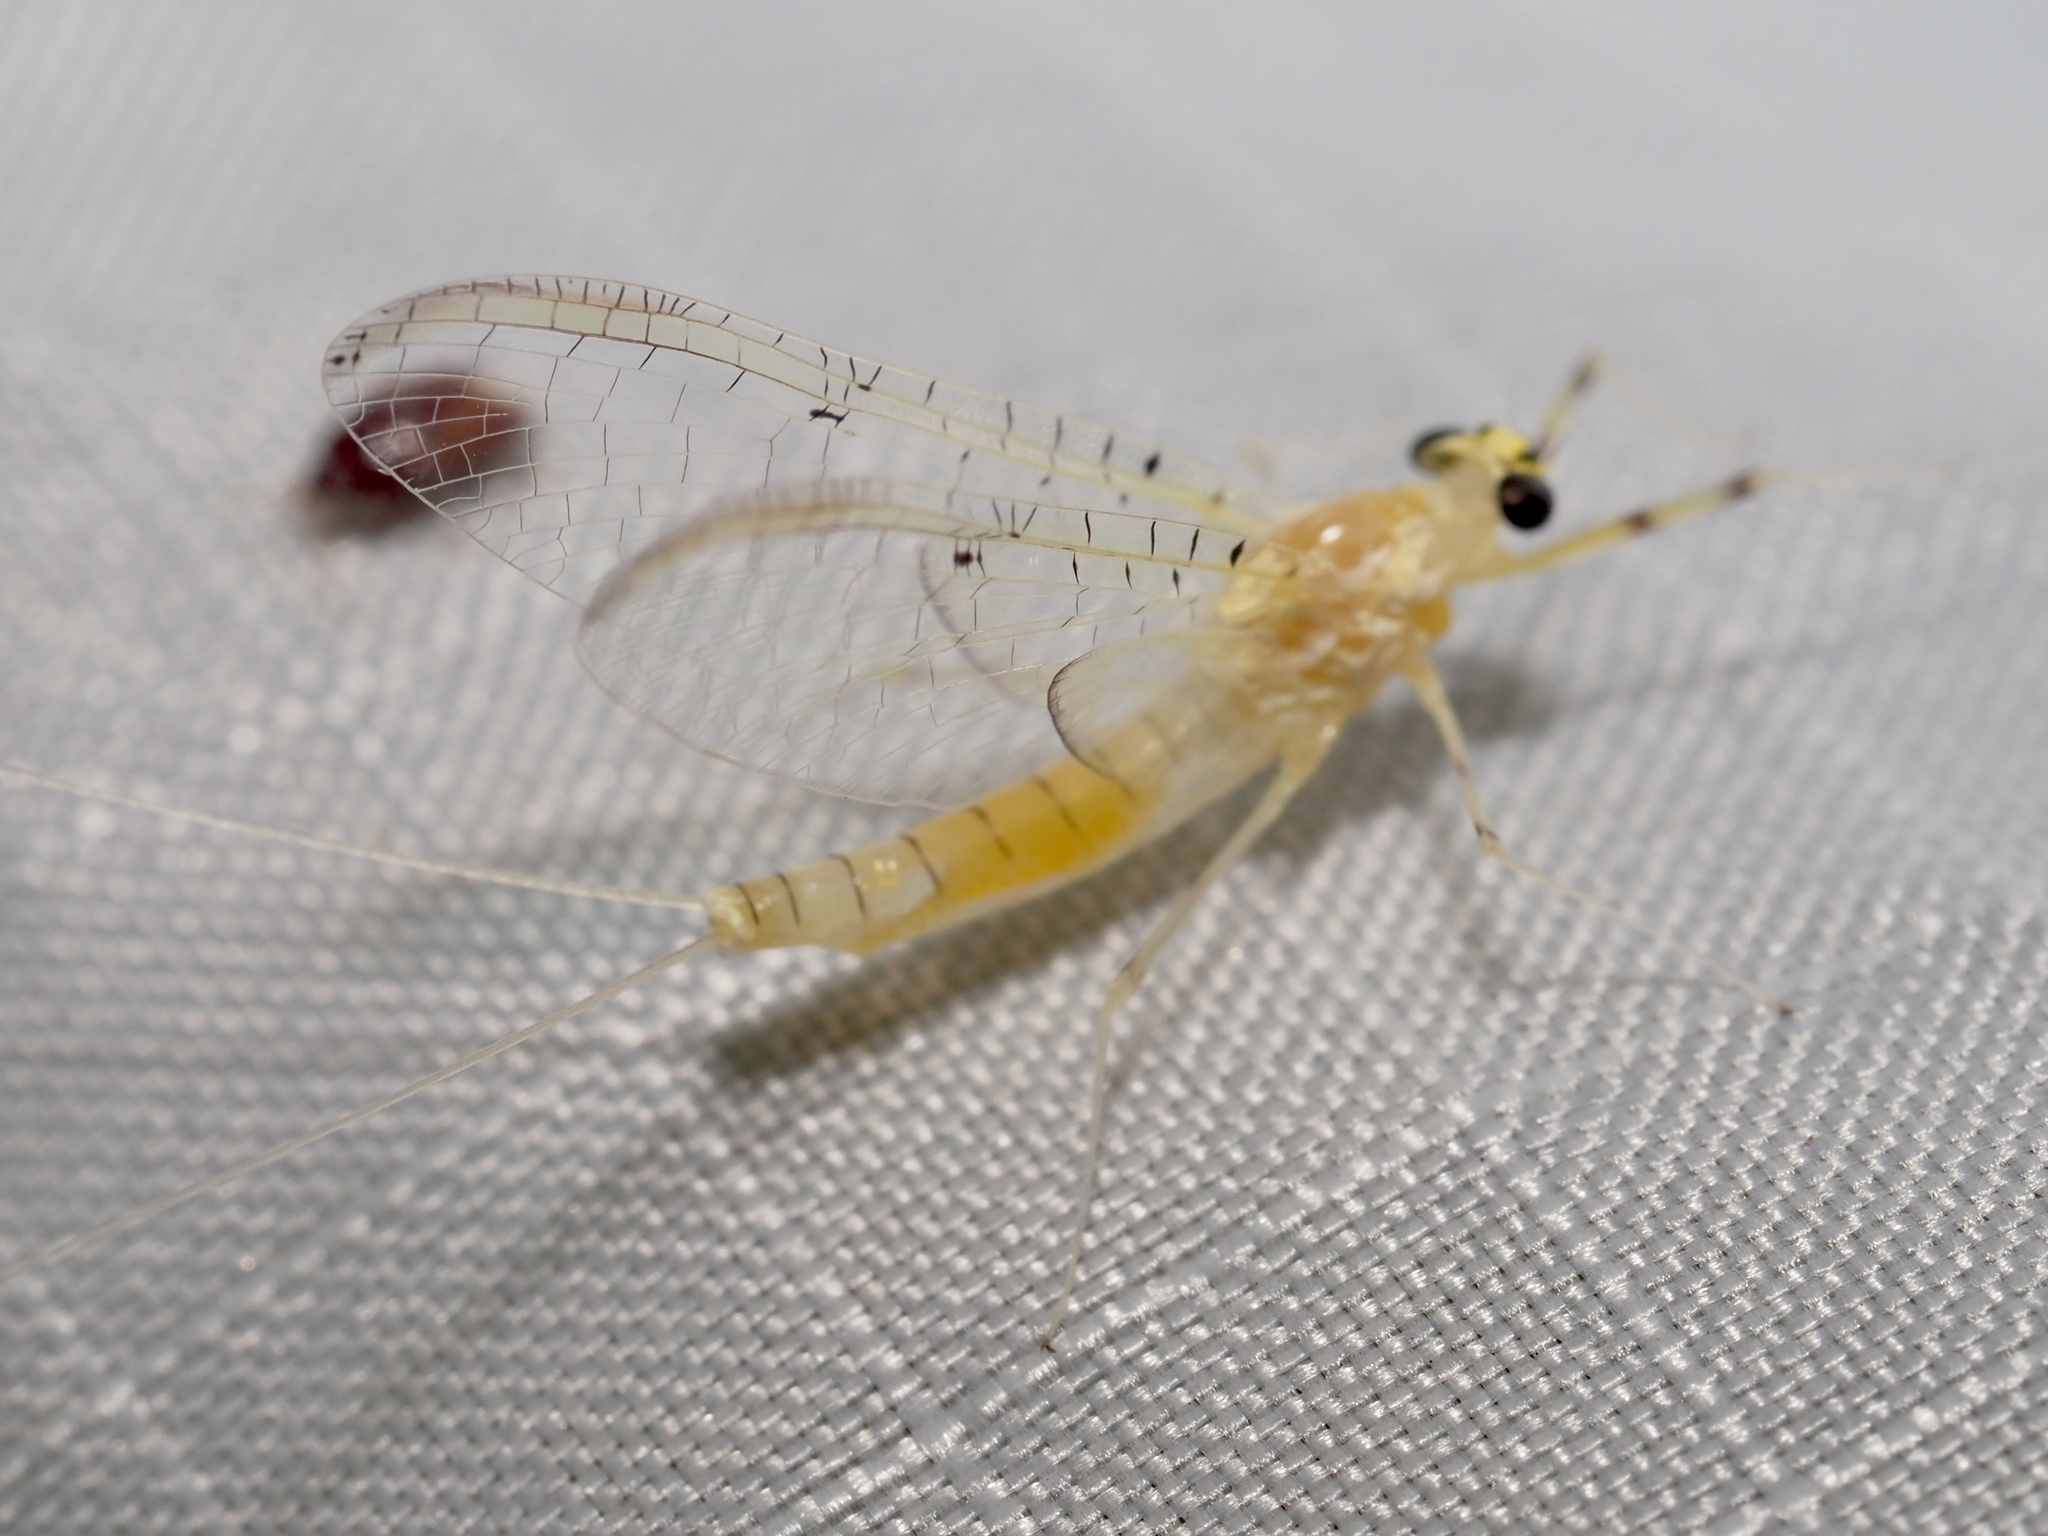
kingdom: Animalia
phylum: Arthropoda
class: Insecta
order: Ephemeroptera
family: Heptageniidae
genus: Stenacron
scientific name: Stenacron interpunctatum
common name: Orange cahill
